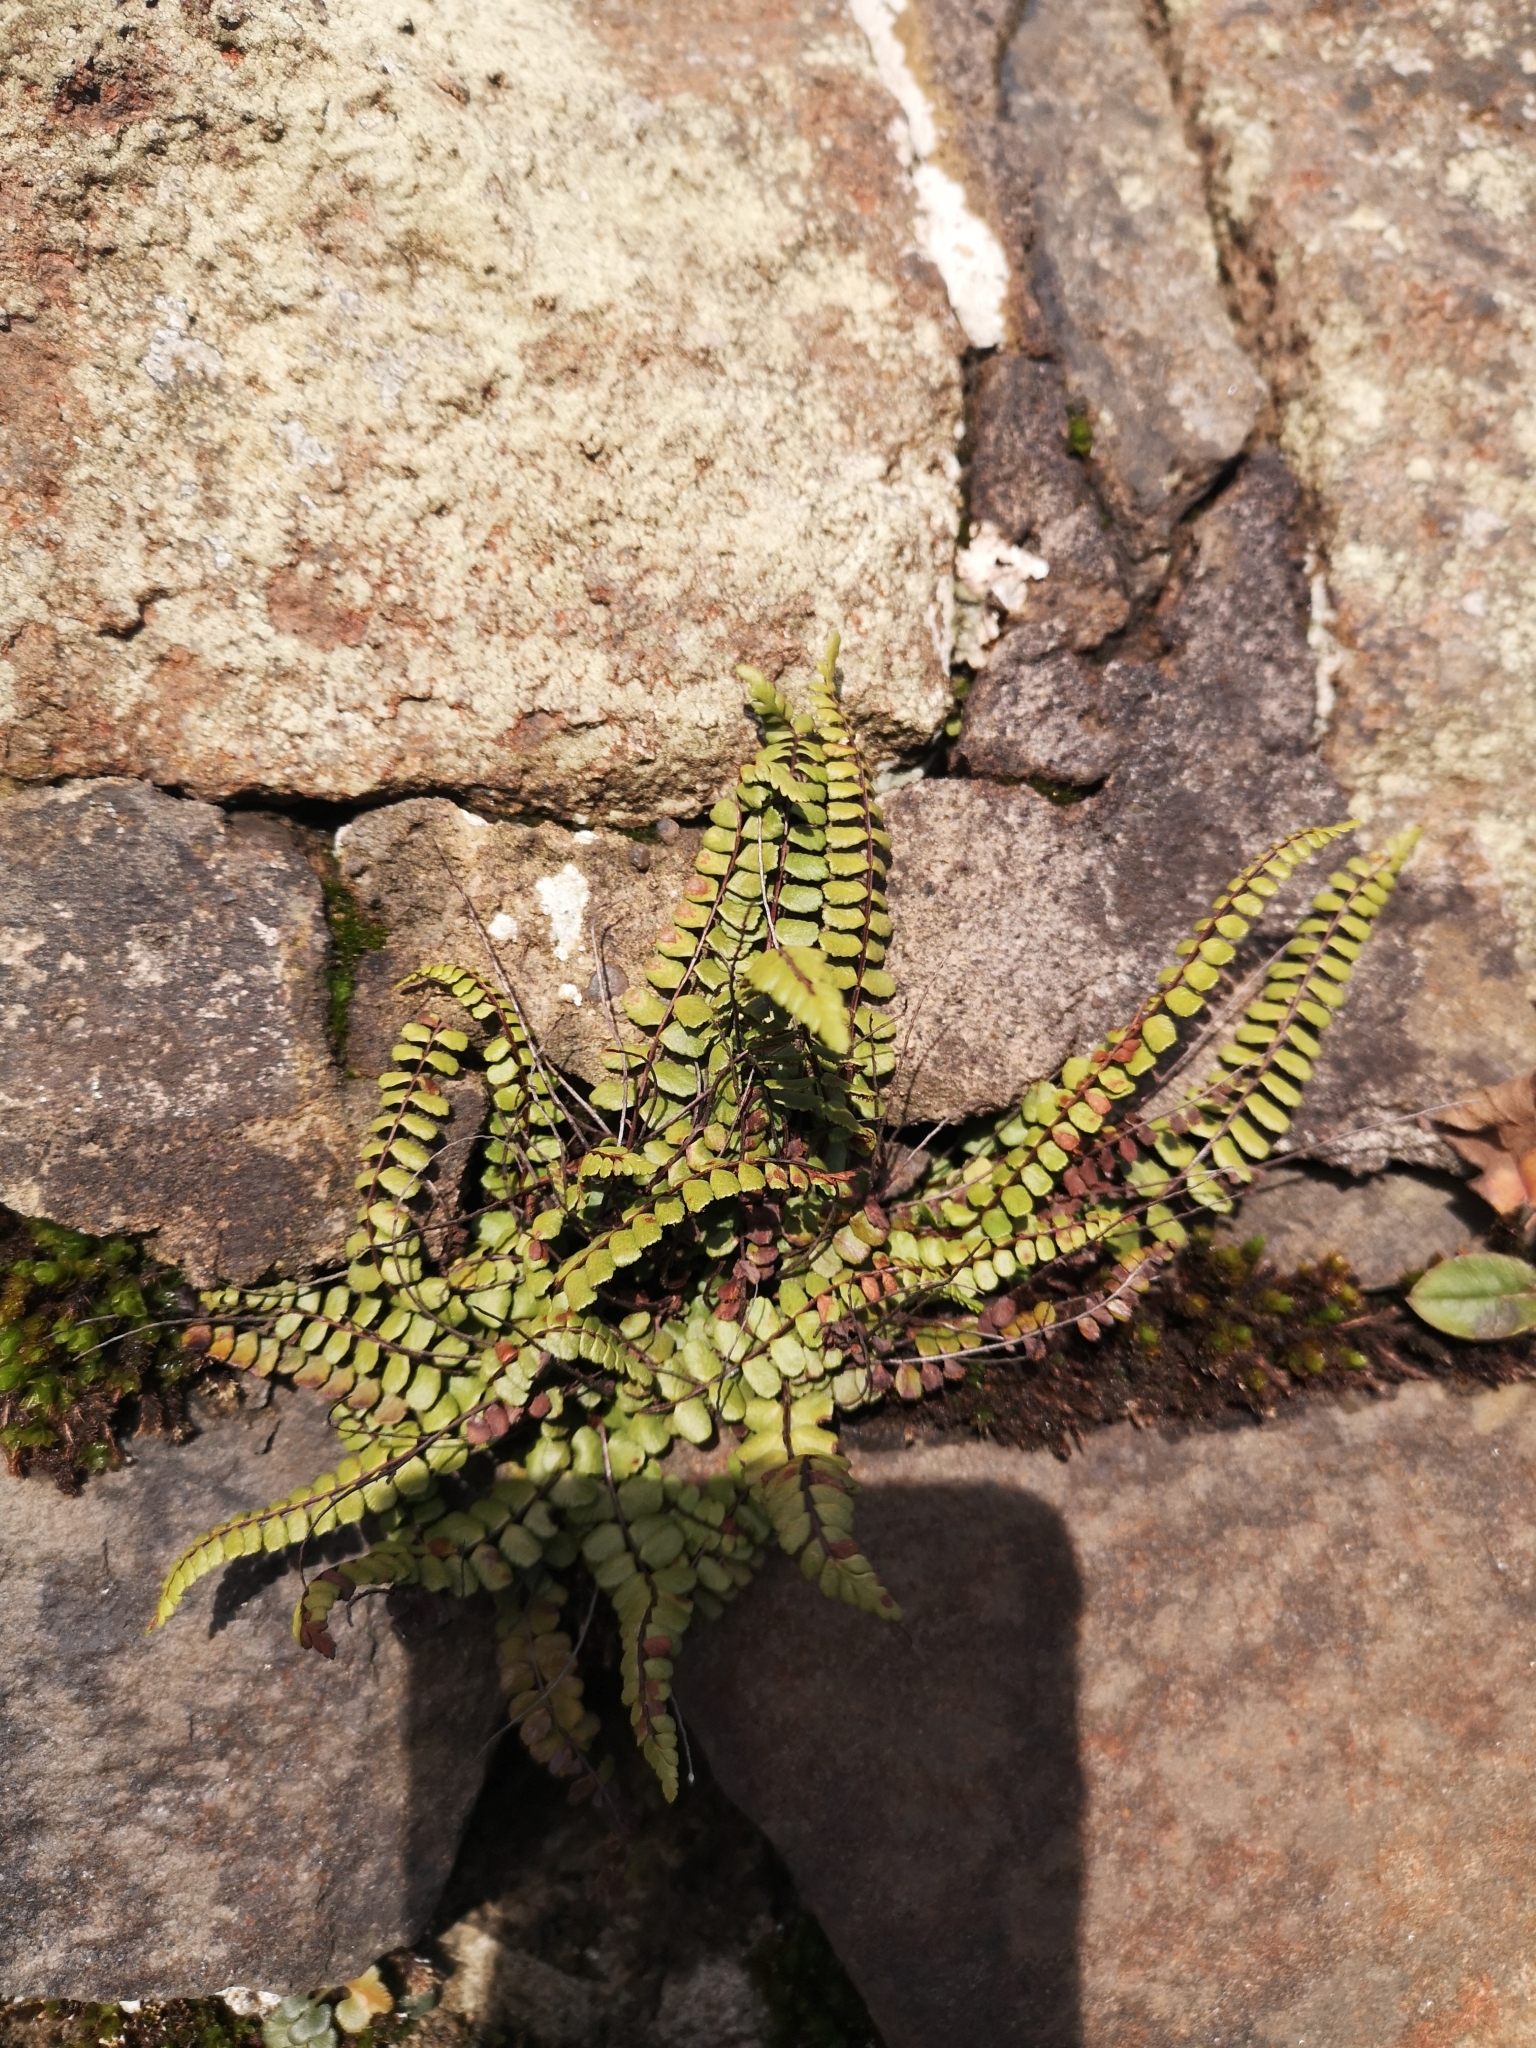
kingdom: Plantae
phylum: Tracheophyta
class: Polypodiopsida
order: Polypodiales
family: Aspleniaceae
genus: Asplenium
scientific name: Asplenium trichomanes
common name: Maidenhair spleenwort
